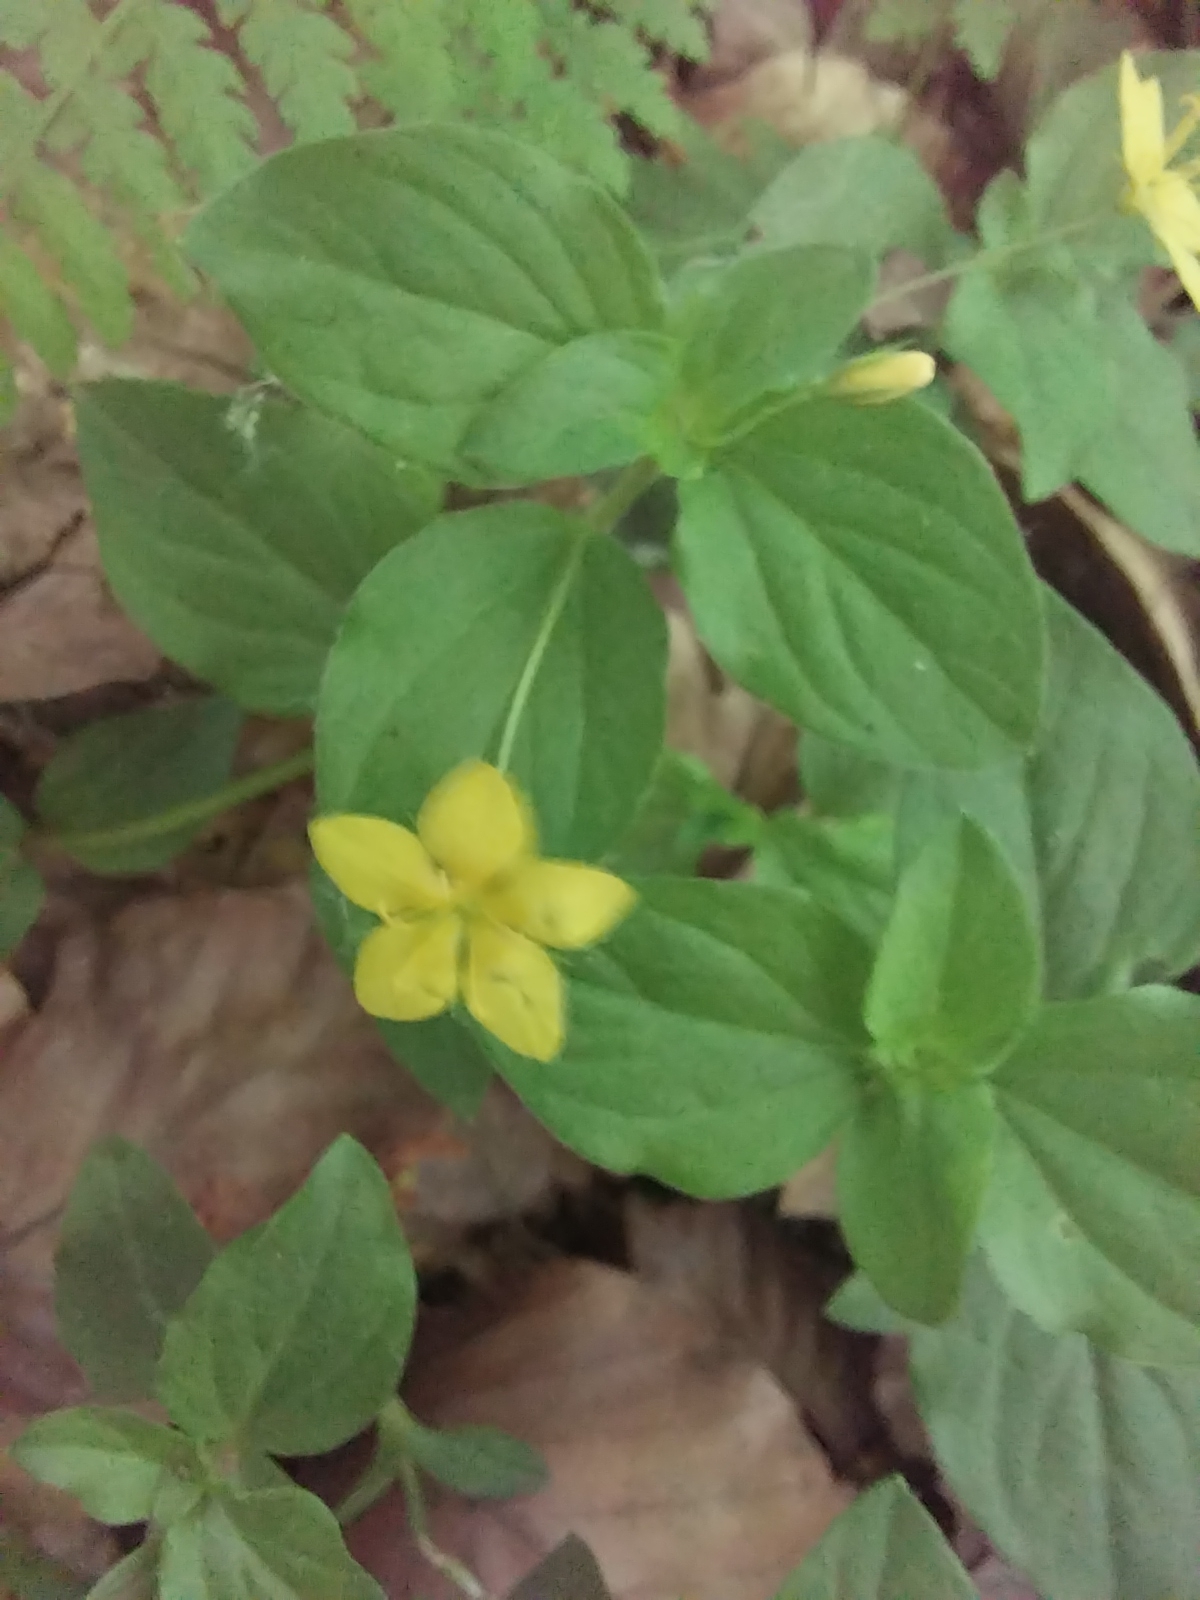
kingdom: Plantae
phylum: Tracheophyta
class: Magnoliopsida
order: Ericales
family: Primulaceae
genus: Lysimachia
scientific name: Lysimachia nemorum
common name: Yellow pimpernel
